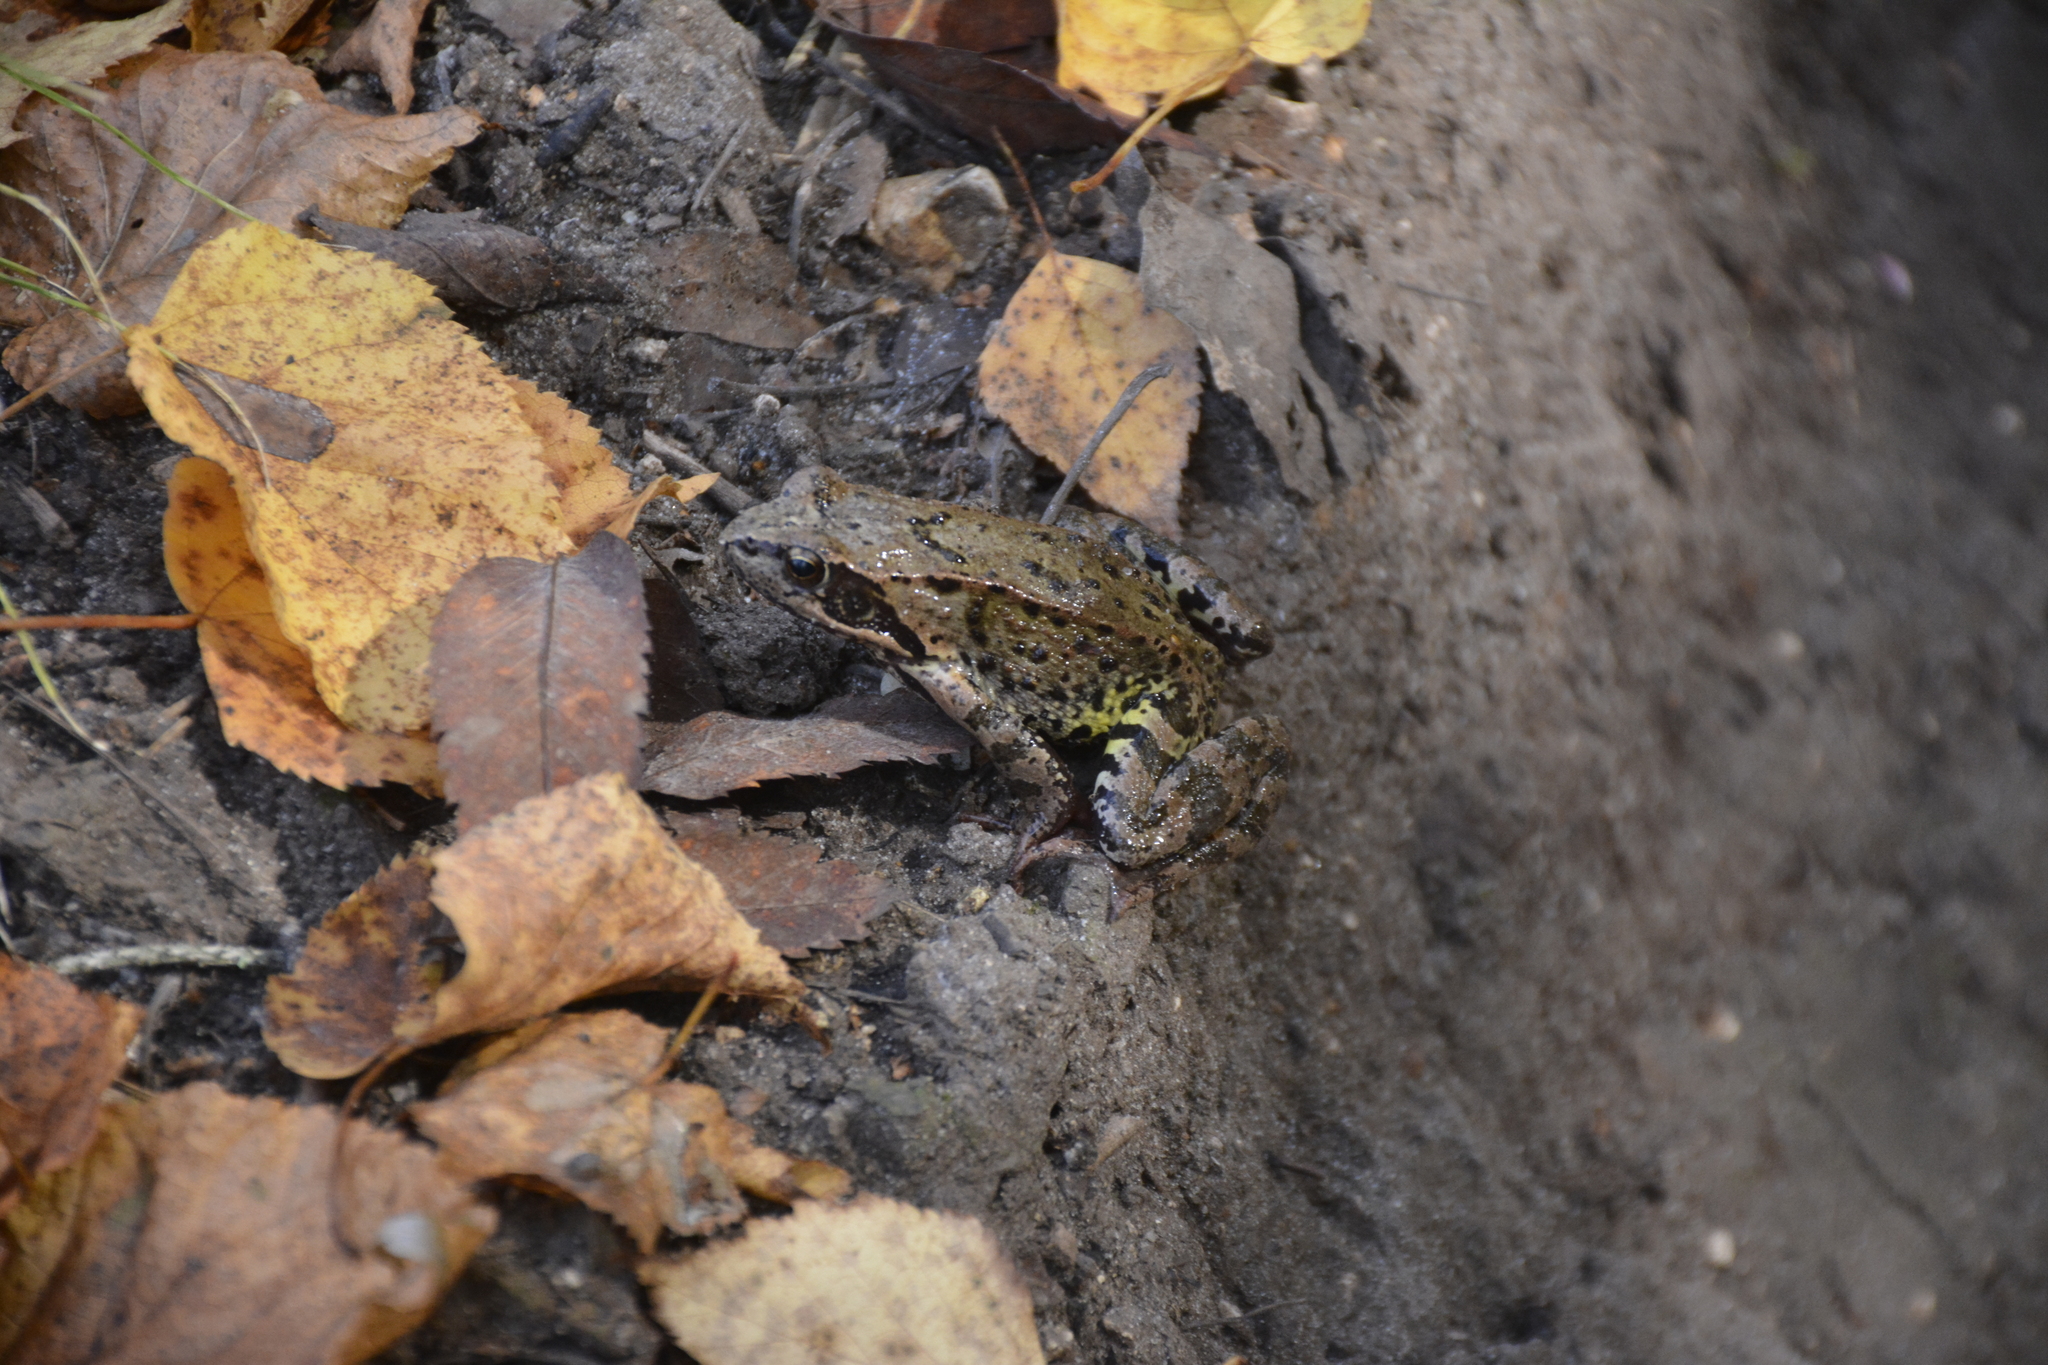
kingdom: Animalia
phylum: Chordata
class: Amphibia
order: Anura
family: Ranidae
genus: Rana
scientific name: Rana temporaria
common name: Common frog
